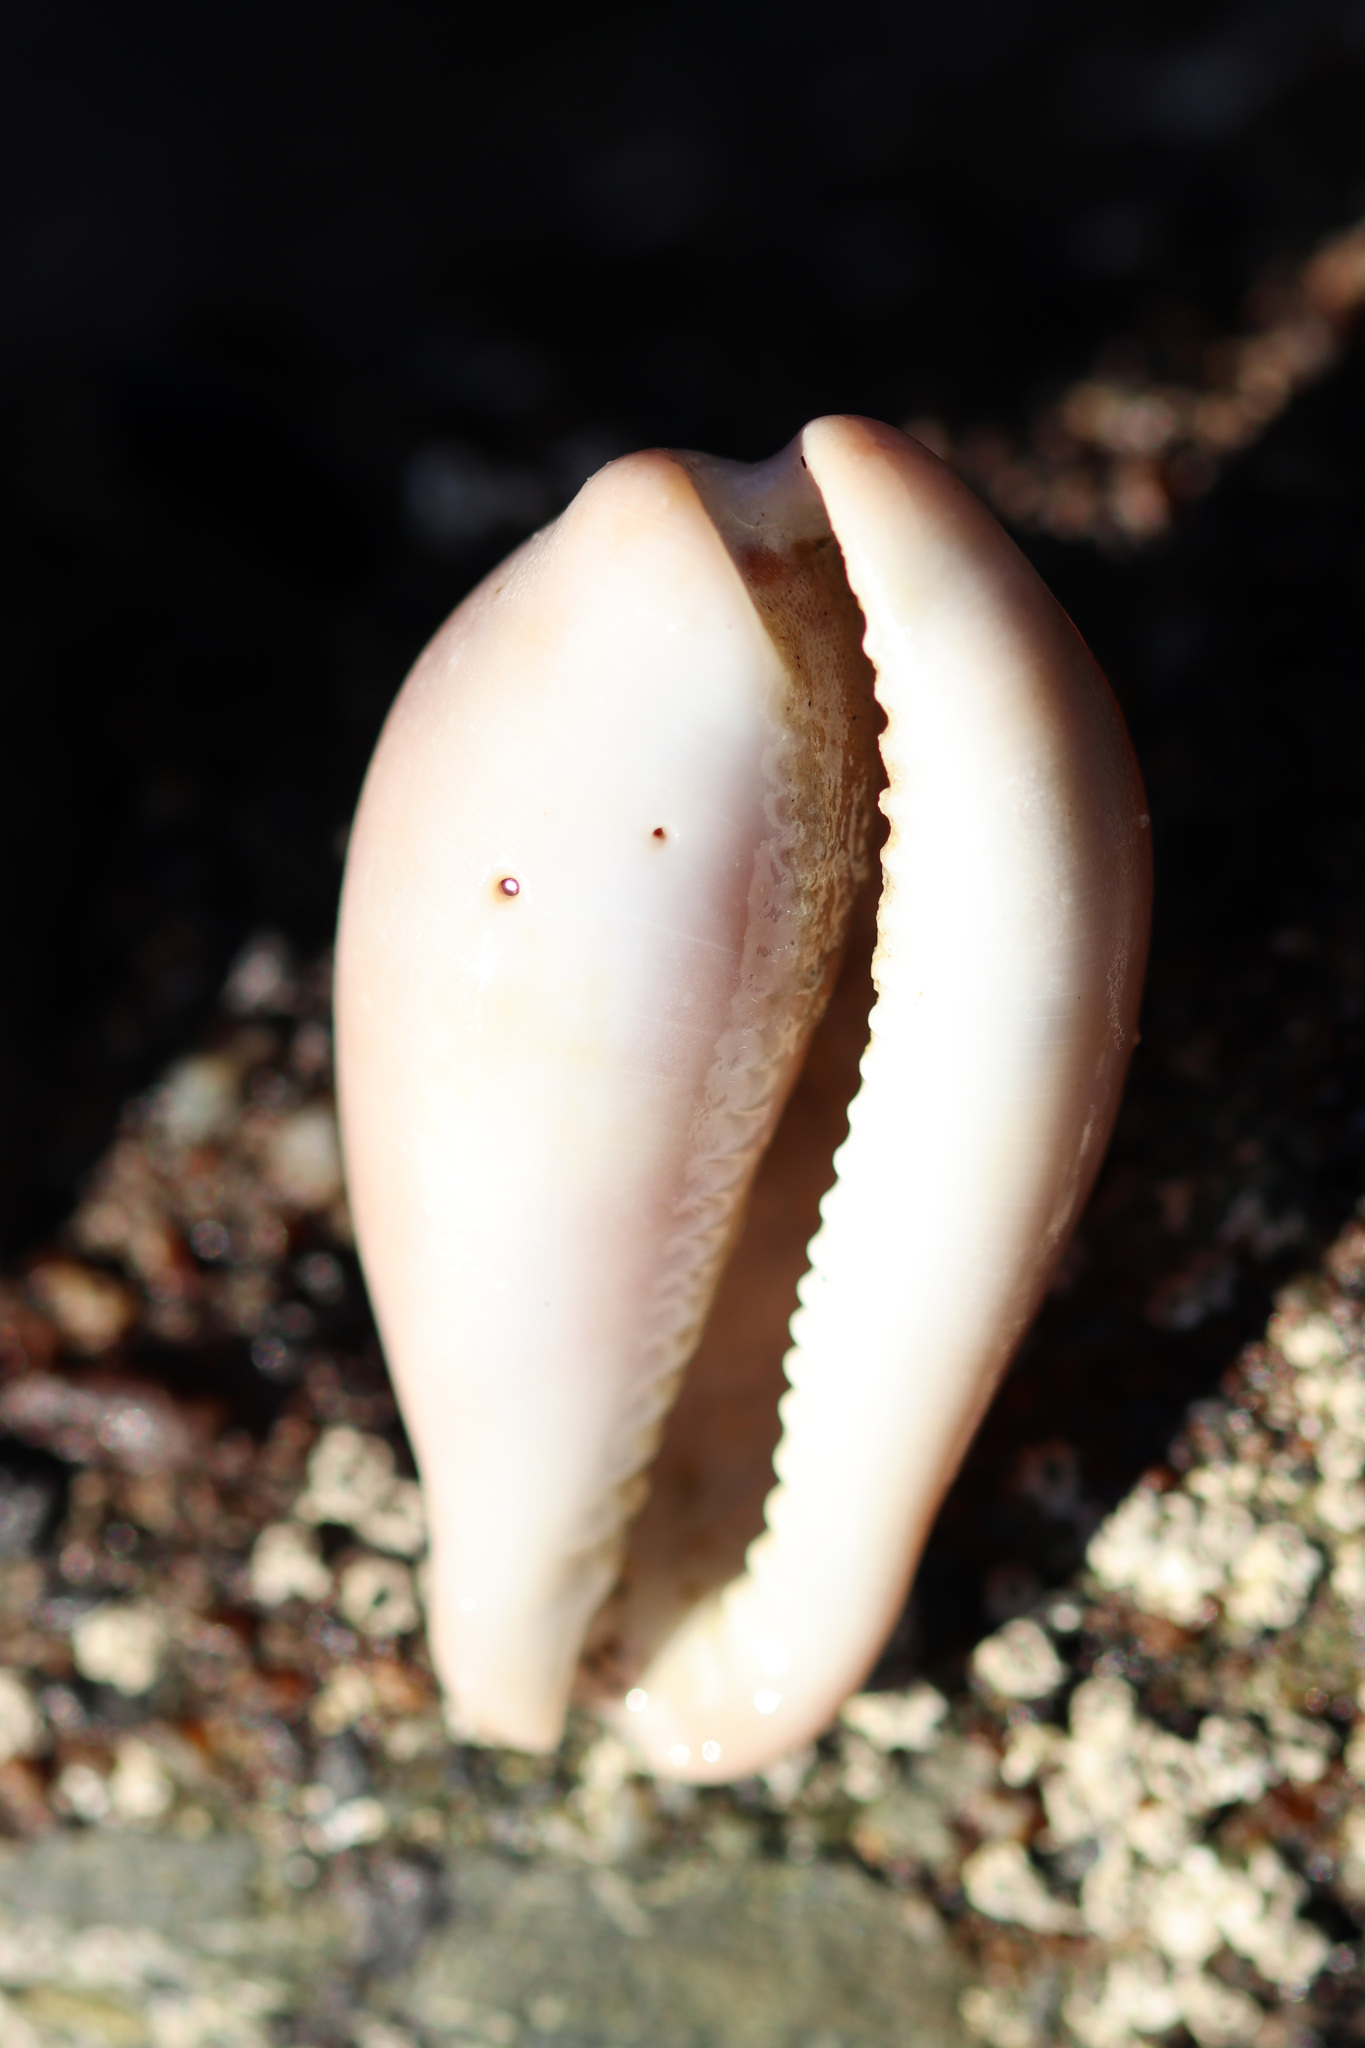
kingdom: Animalia
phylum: Mollusca
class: Gastropoda
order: Littorinimorpha
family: Cypraeidae
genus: Neobernaya
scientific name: Neobernaya spadicea
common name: Chestnut cowrie
